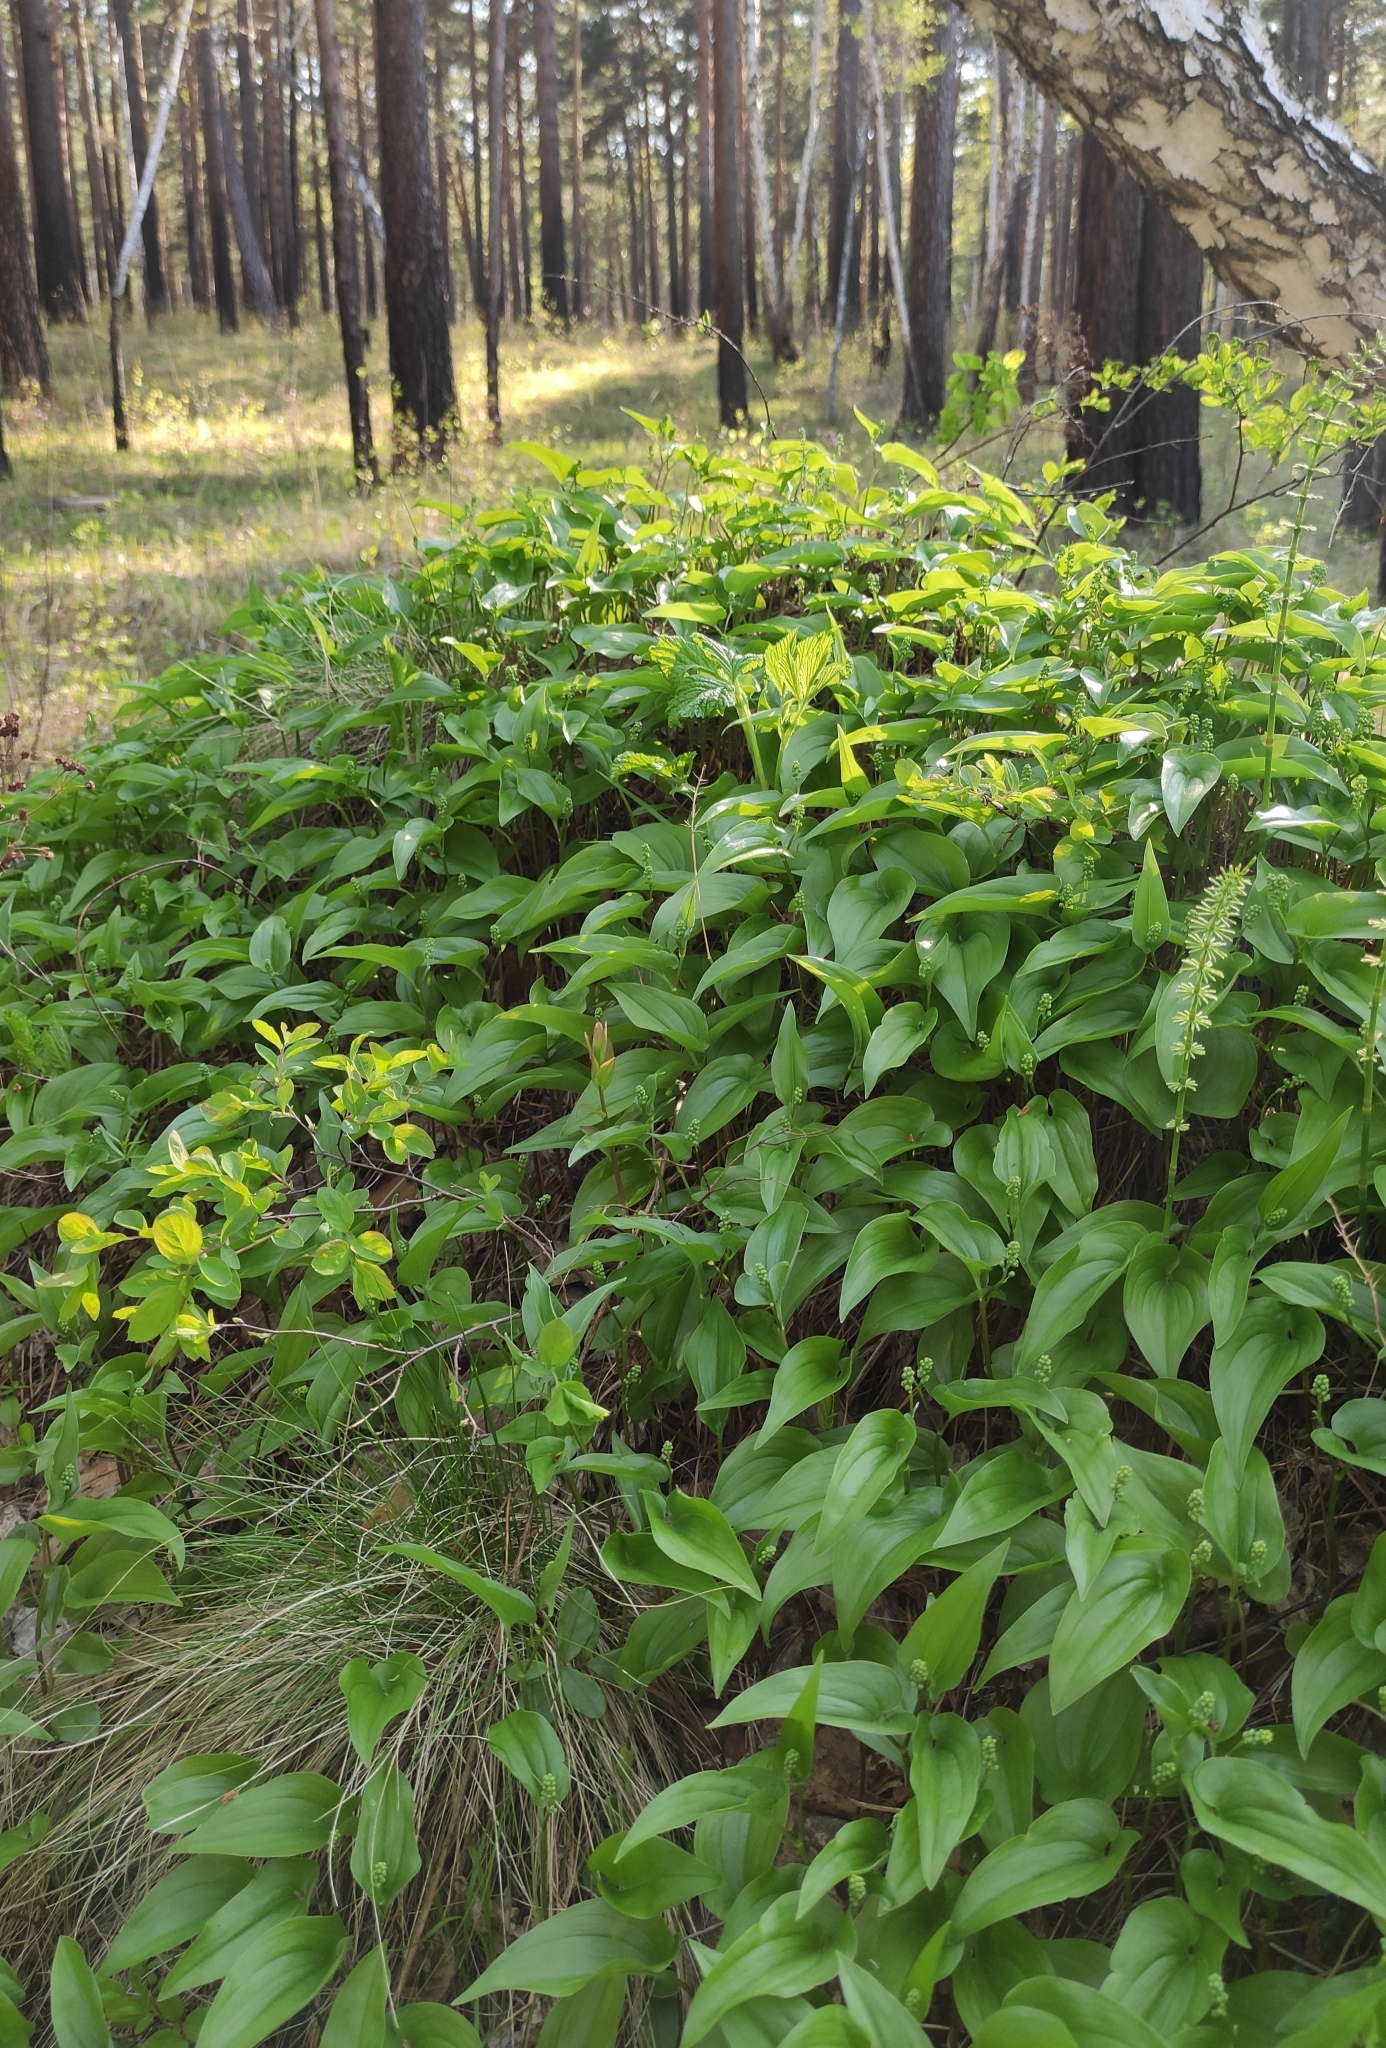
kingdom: Plantae
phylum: Tracheophyta
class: Liliopsida
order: Asparagales
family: Asparagaceae
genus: Maianthemum
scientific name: Maianthemum bifolium
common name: May lily
